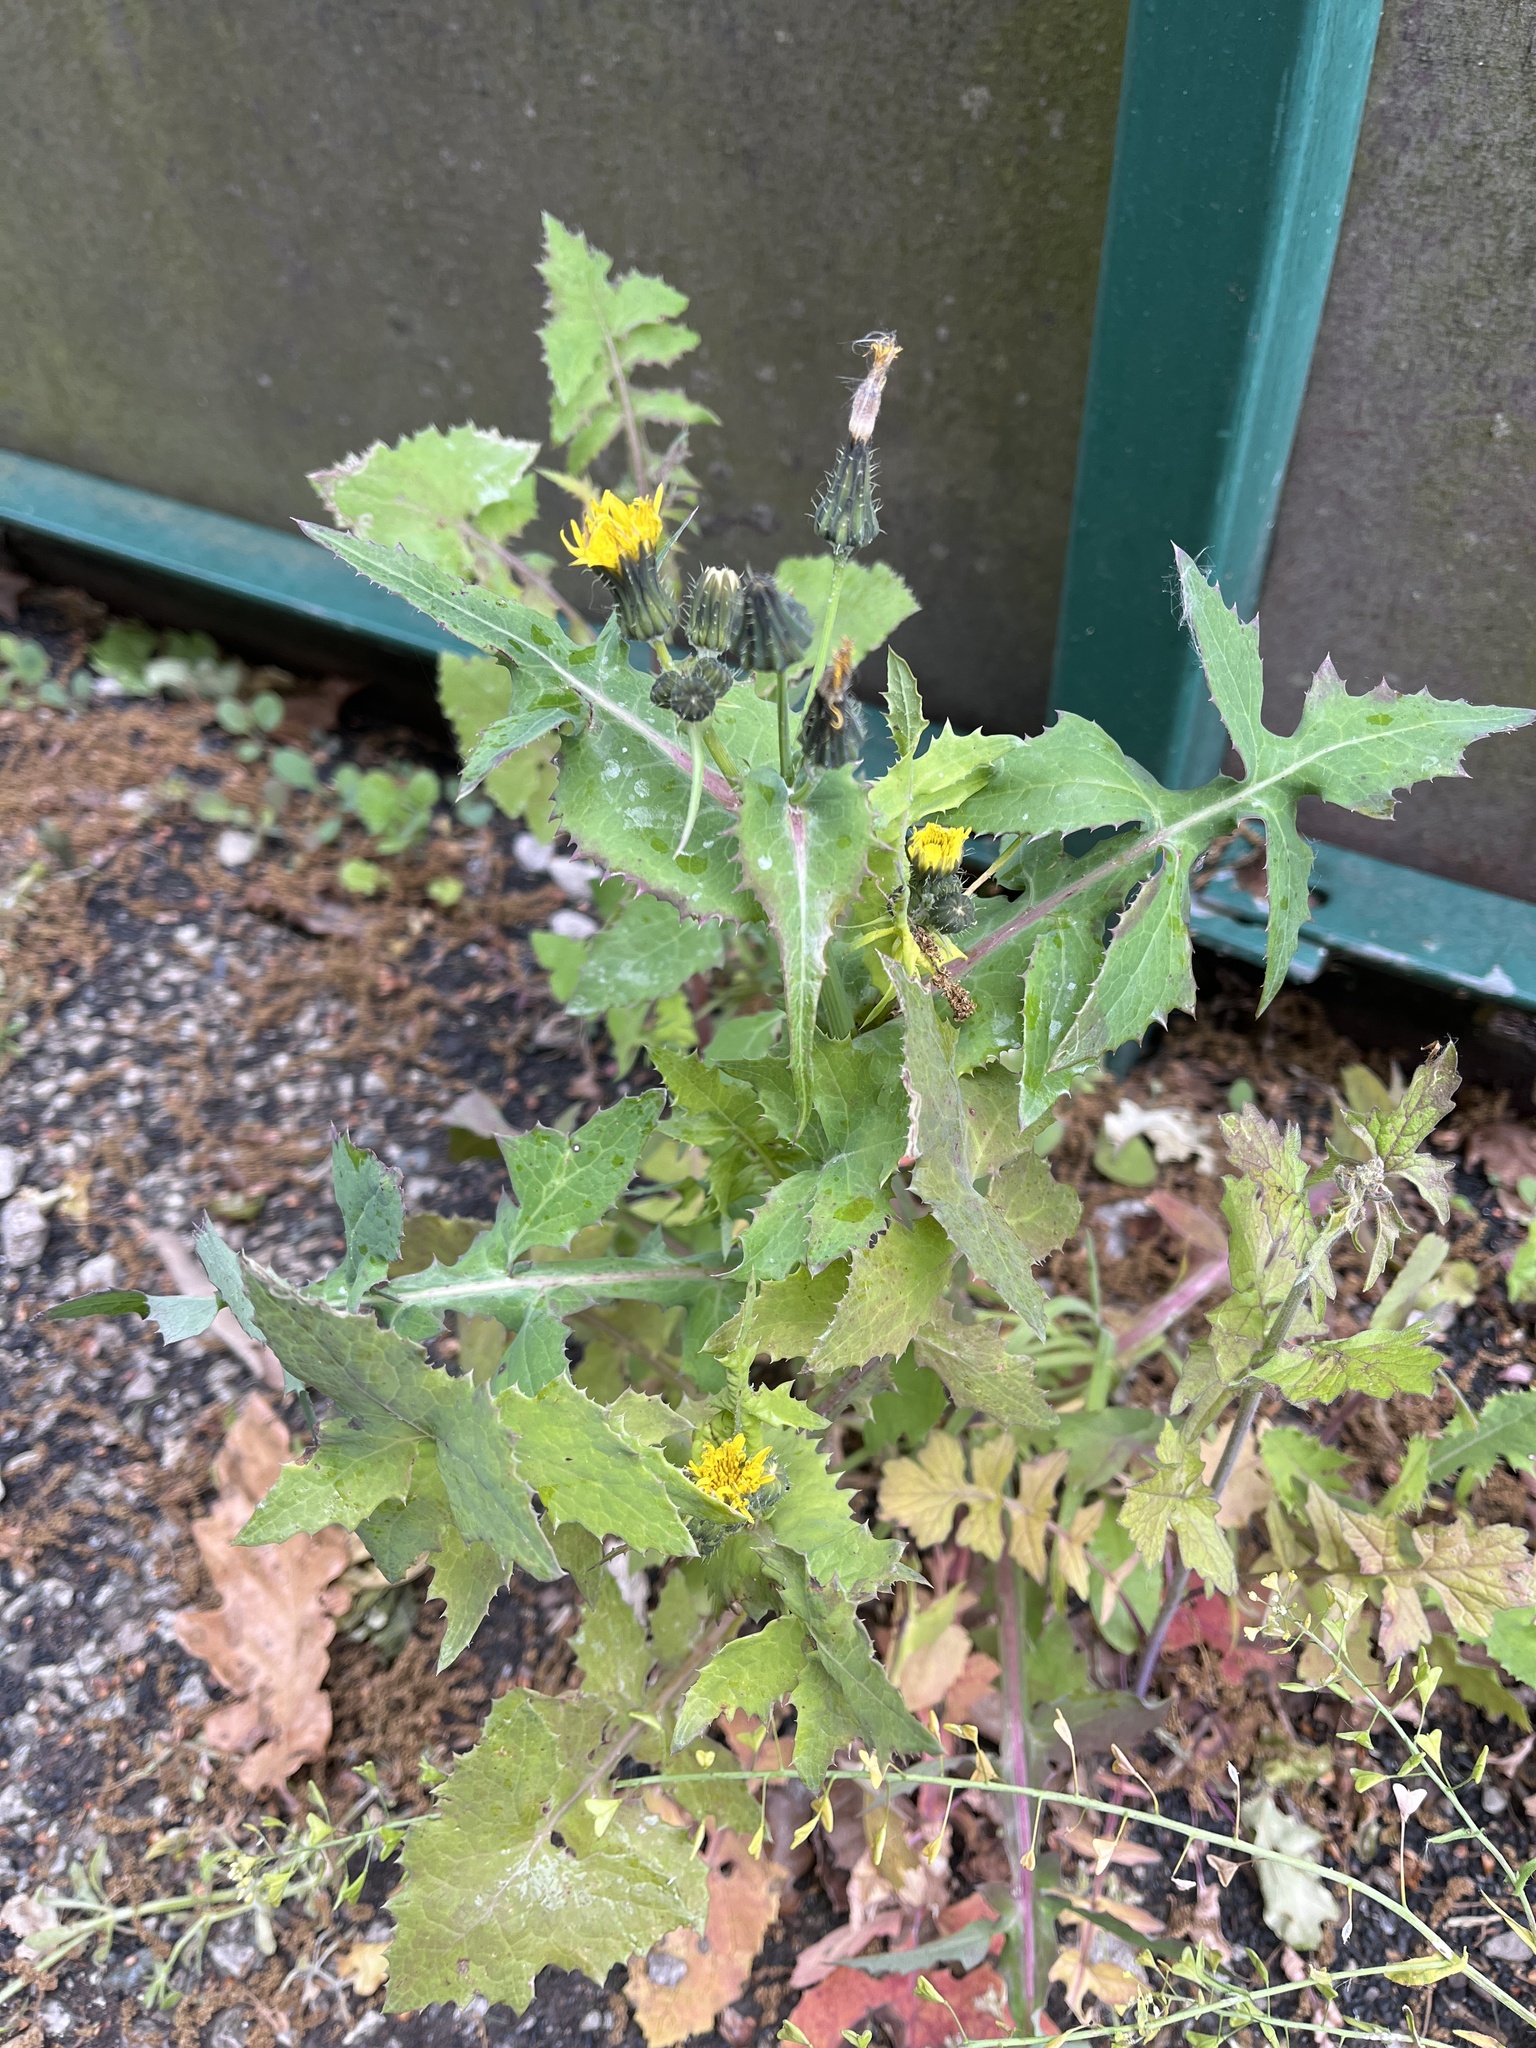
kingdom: Plantae
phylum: Tracheophyta
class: Magnoliopsida
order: Asterales
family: Asteraceae
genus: Sonchus
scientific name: Sonchus oleraceus
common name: Common sowthistle
